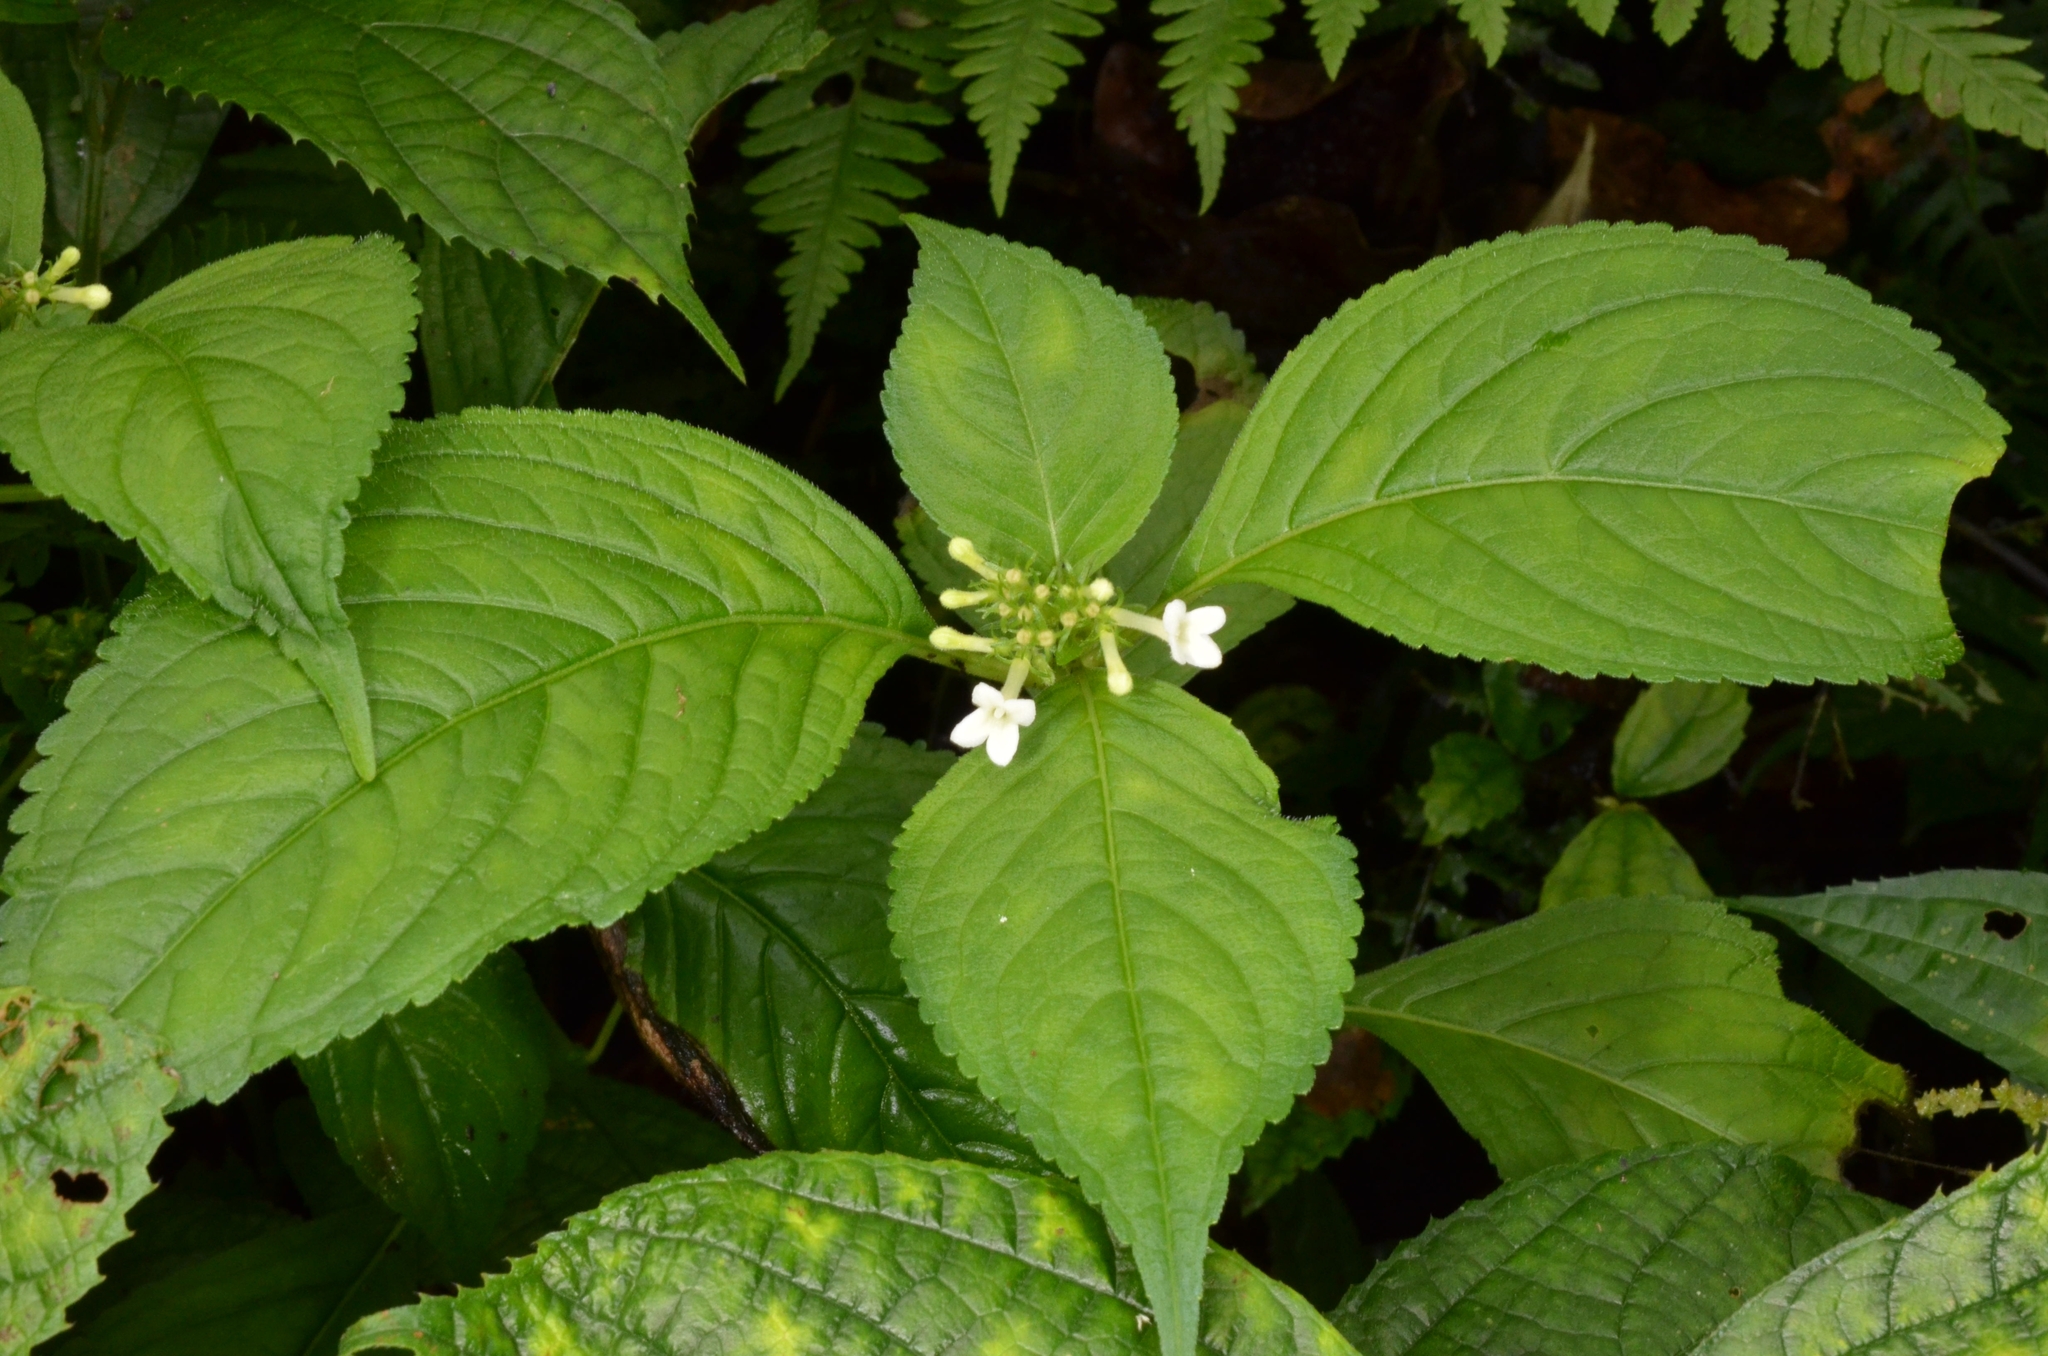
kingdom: Plantae
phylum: Tracheophyta
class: Magnoliopsida
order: Lamiales
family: Carlemanniaceae
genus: Carlemannia
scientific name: Carlemannia tetragona
